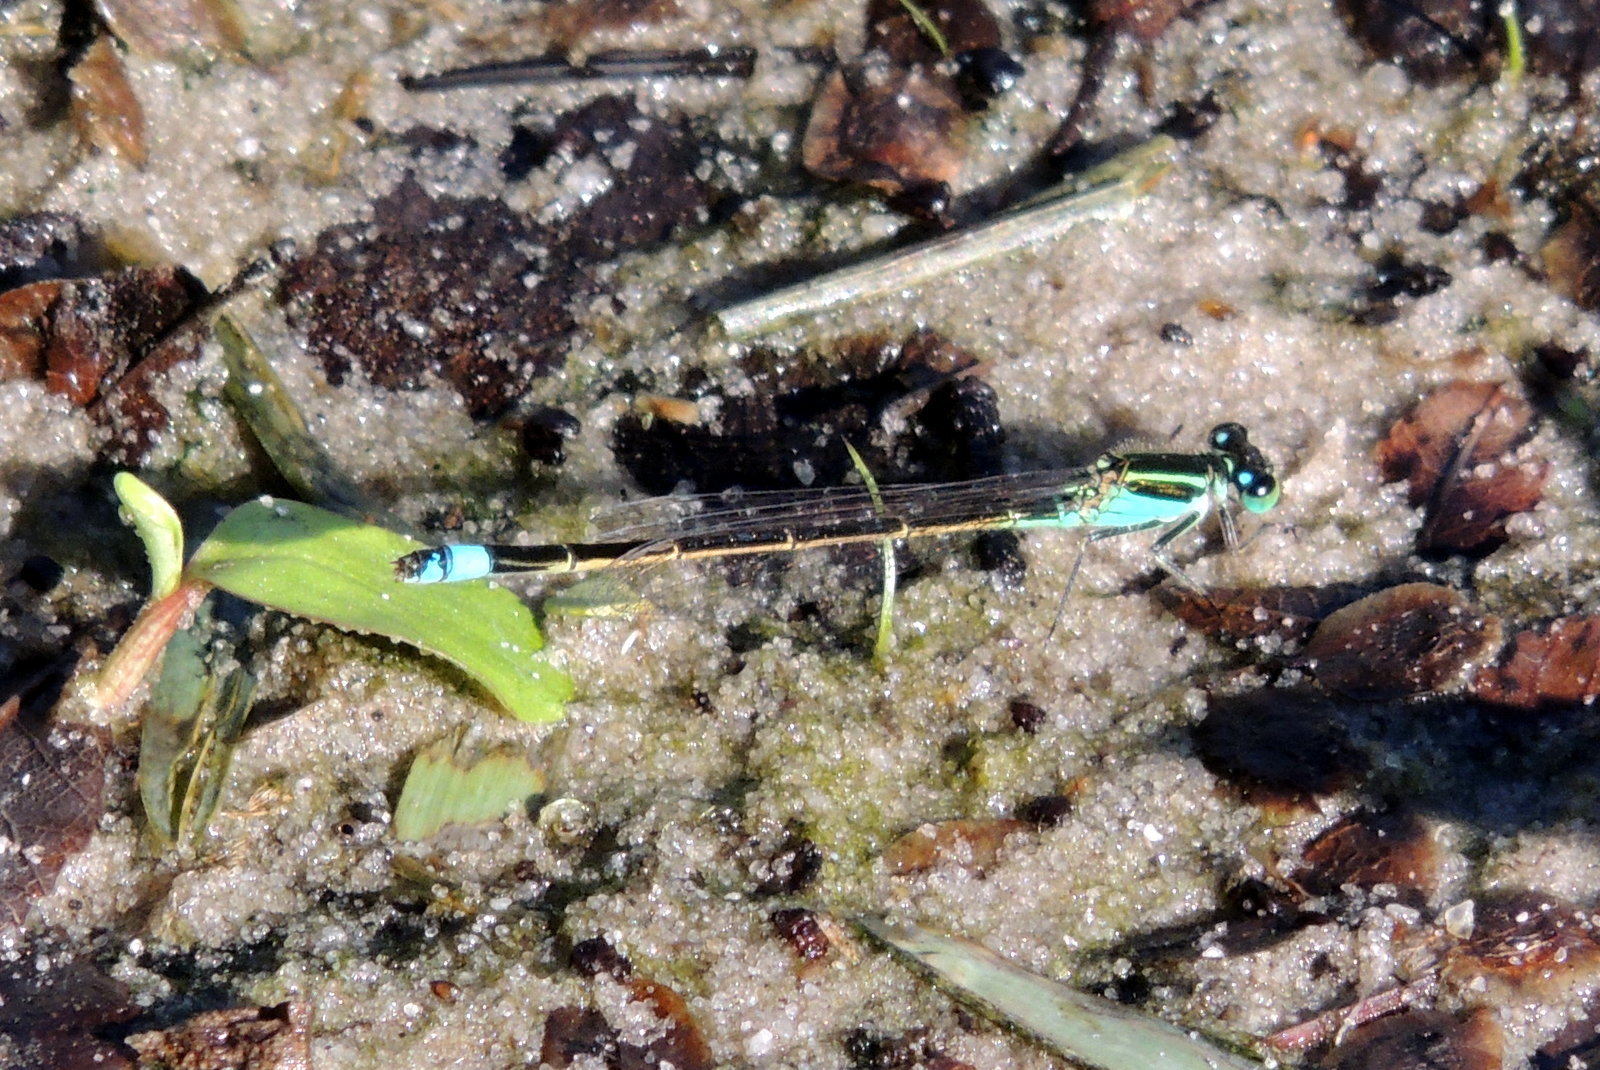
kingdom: Animalia
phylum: Arthropoda
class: Insecta
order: Odonata
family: Coenagrionidae
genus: Ischnura
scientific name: Ischnura ramburii
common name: Rambur's forktail
